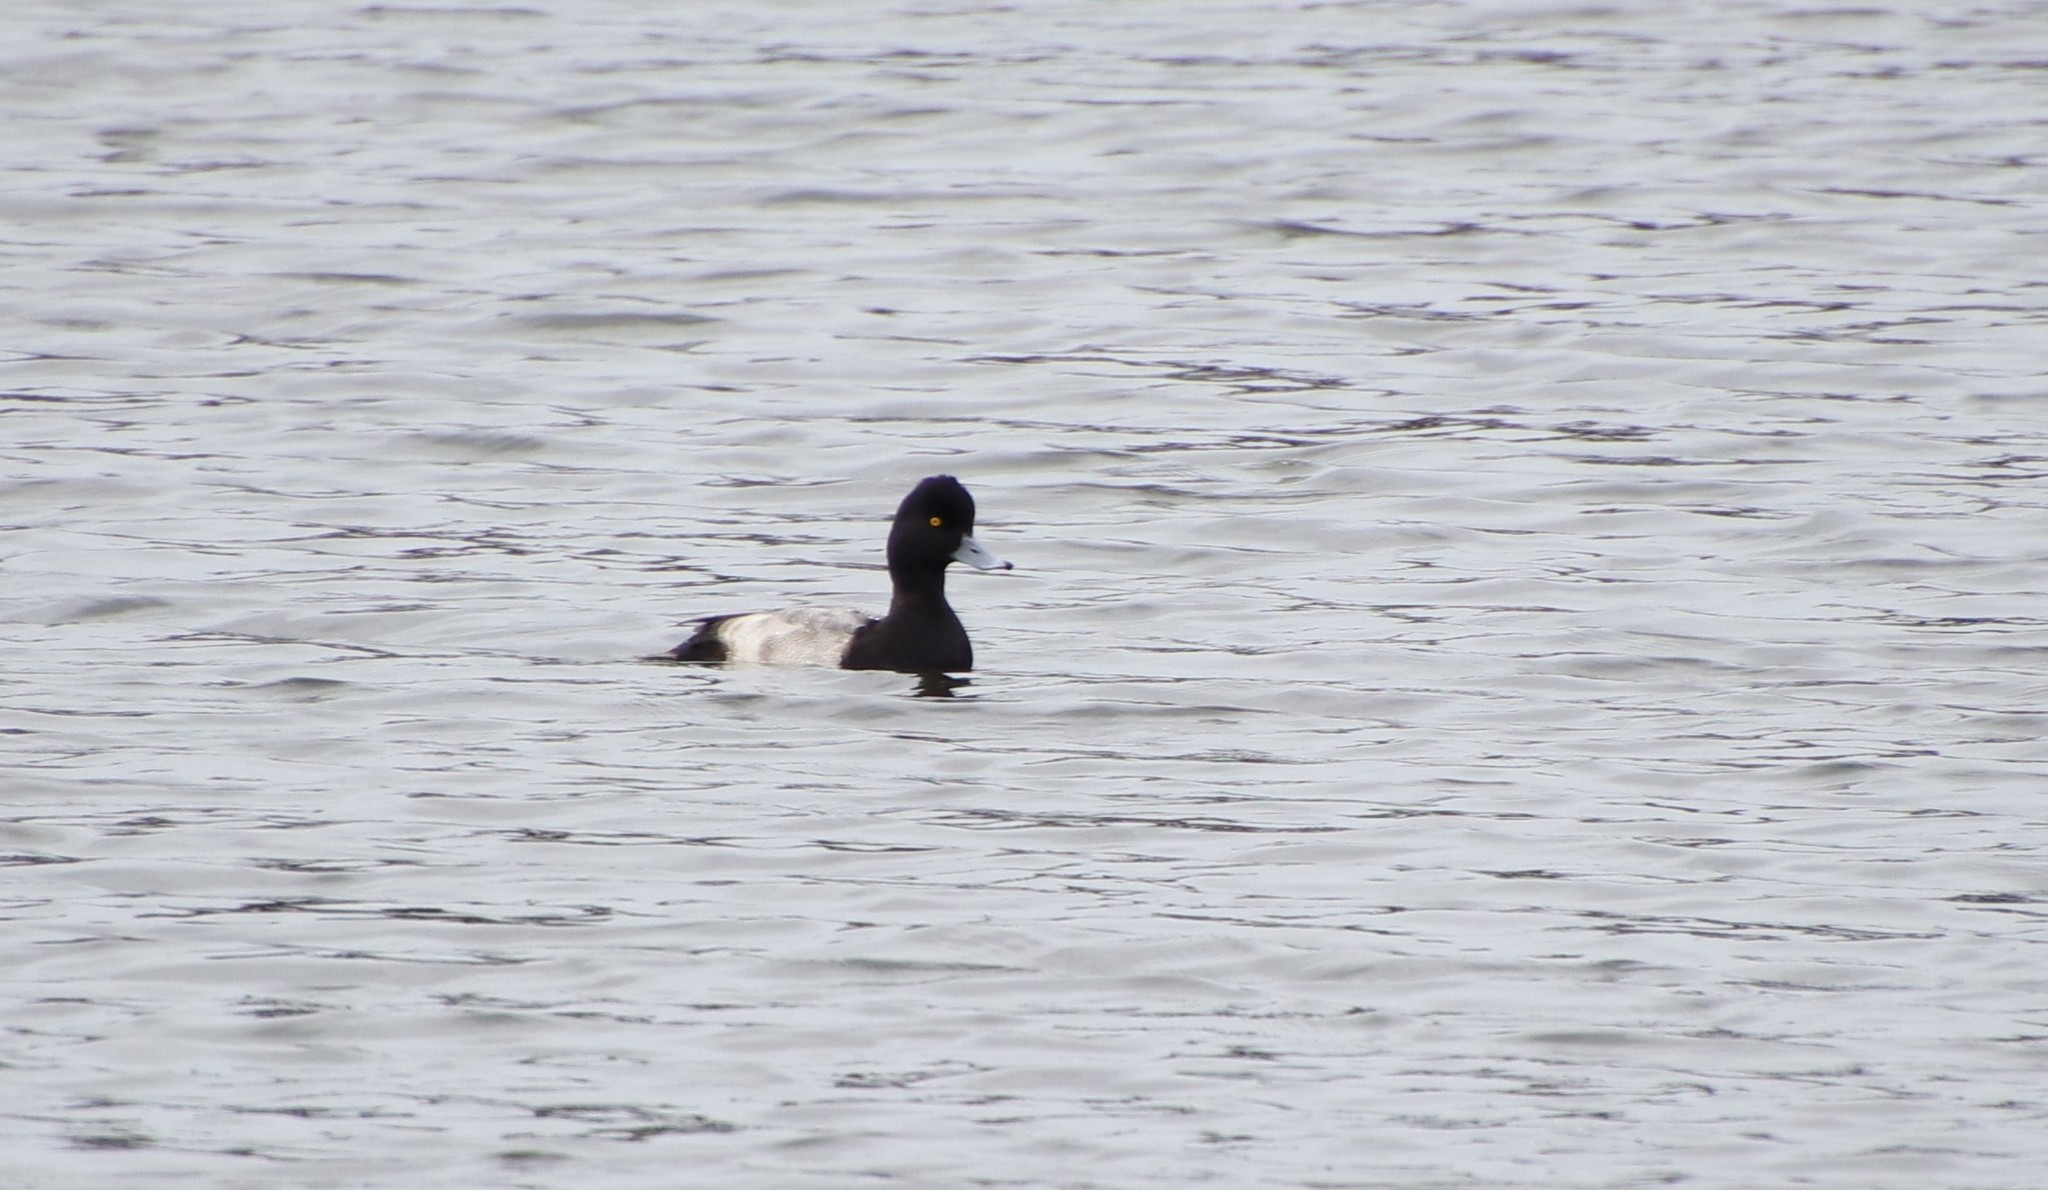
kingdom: Animalia
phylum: Chordata
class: Aves
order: Anseriformes
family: Anatidae
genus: Aythya
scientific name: Aythya affinis
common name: Lesser scaup
